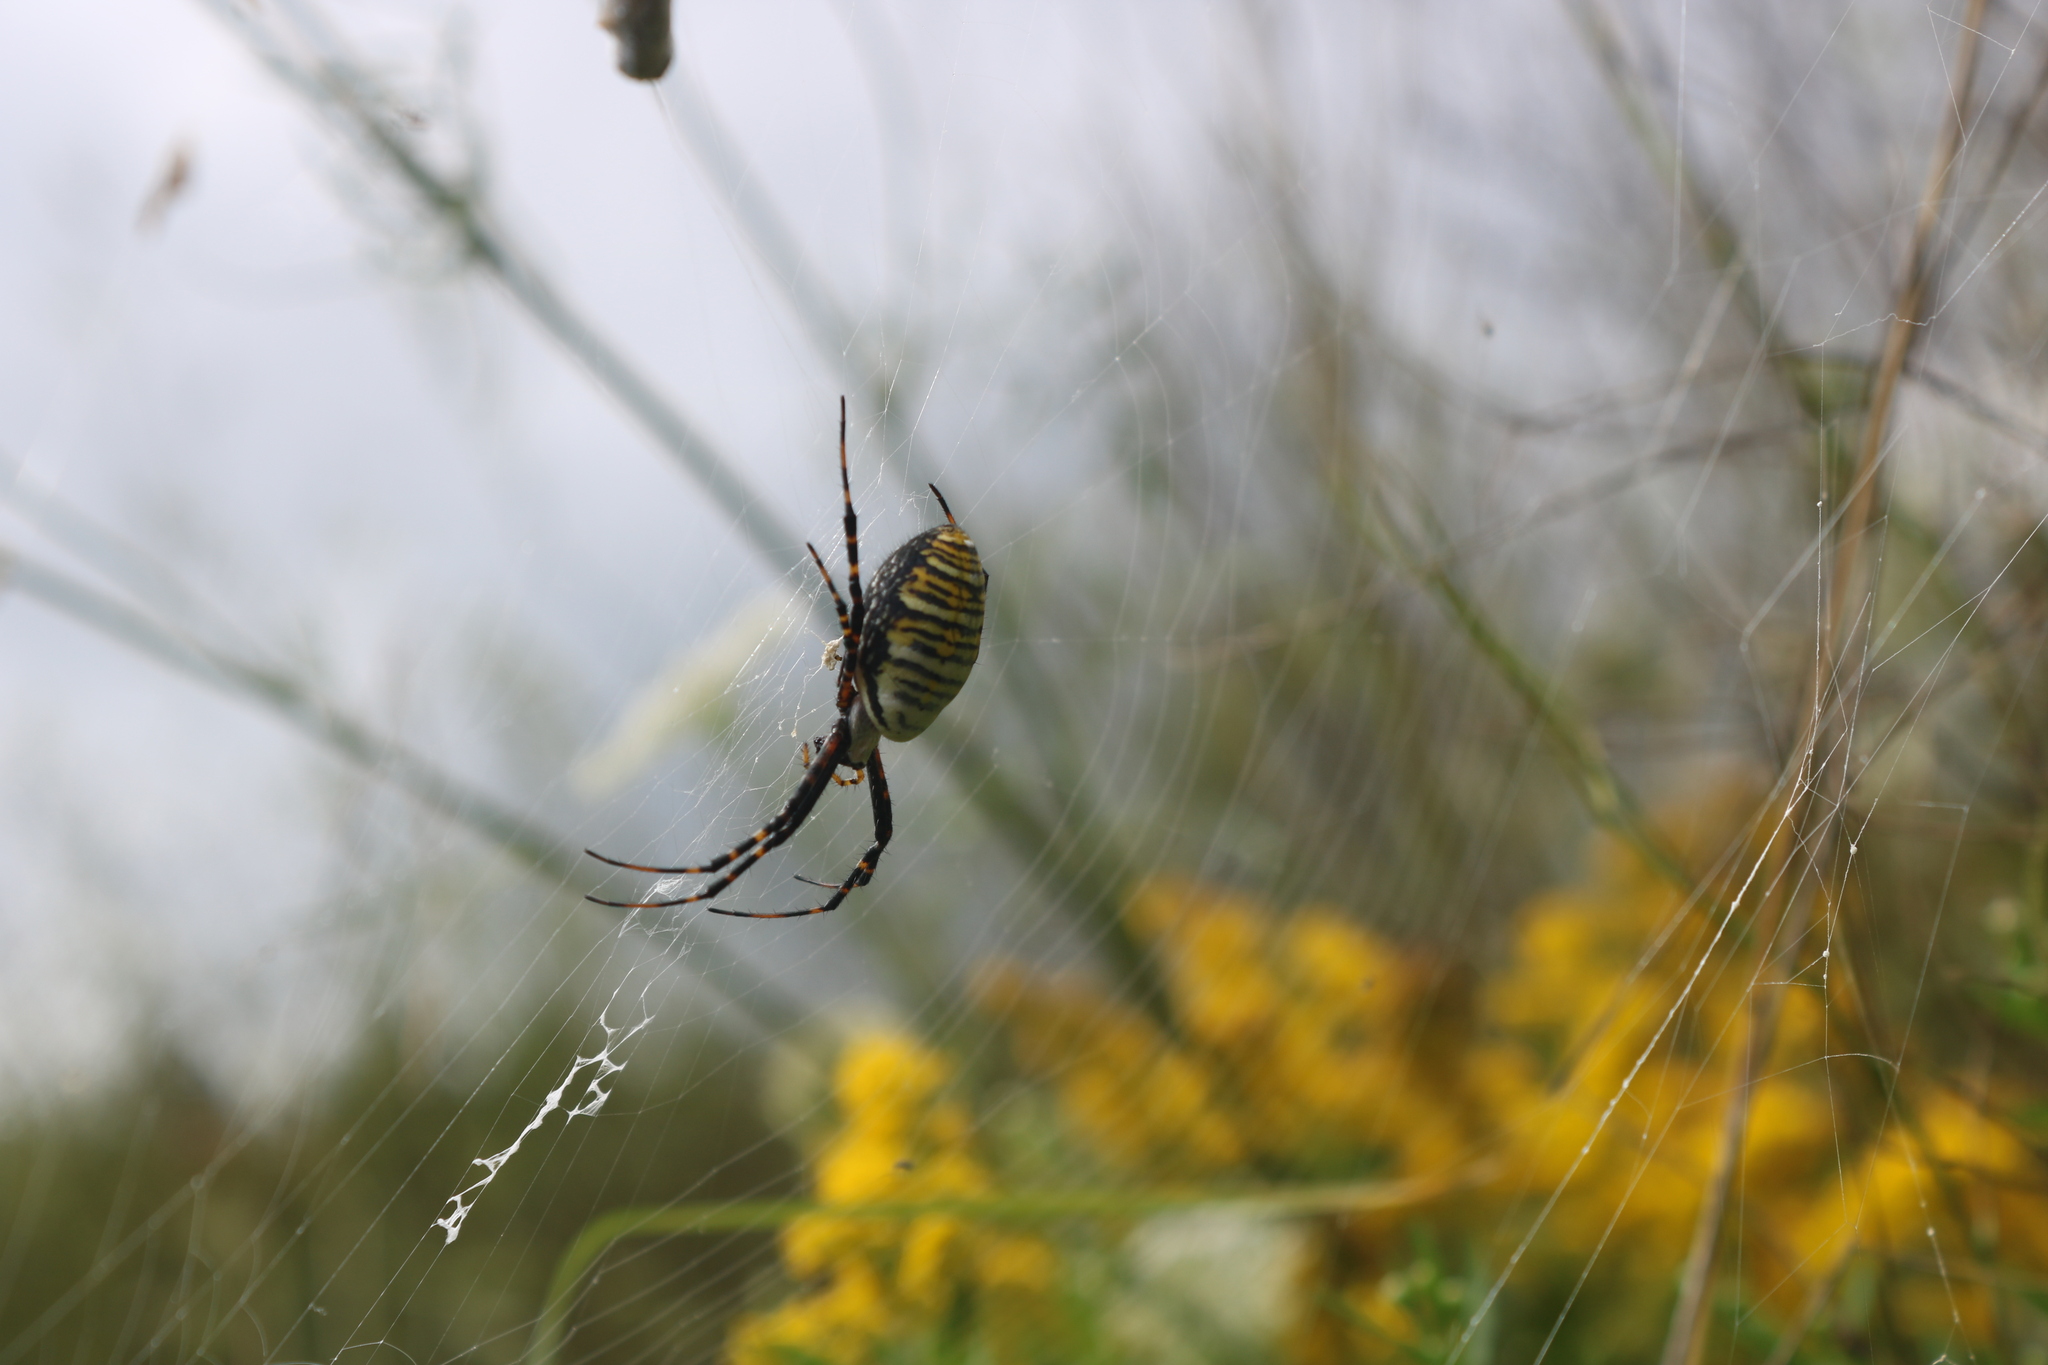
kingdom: Animalia
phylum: Arthropoda
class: Arachnida
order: Araneae
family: Araneidae
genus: Argiope
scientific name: Argiope trifasciata
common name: Banded garden spider
